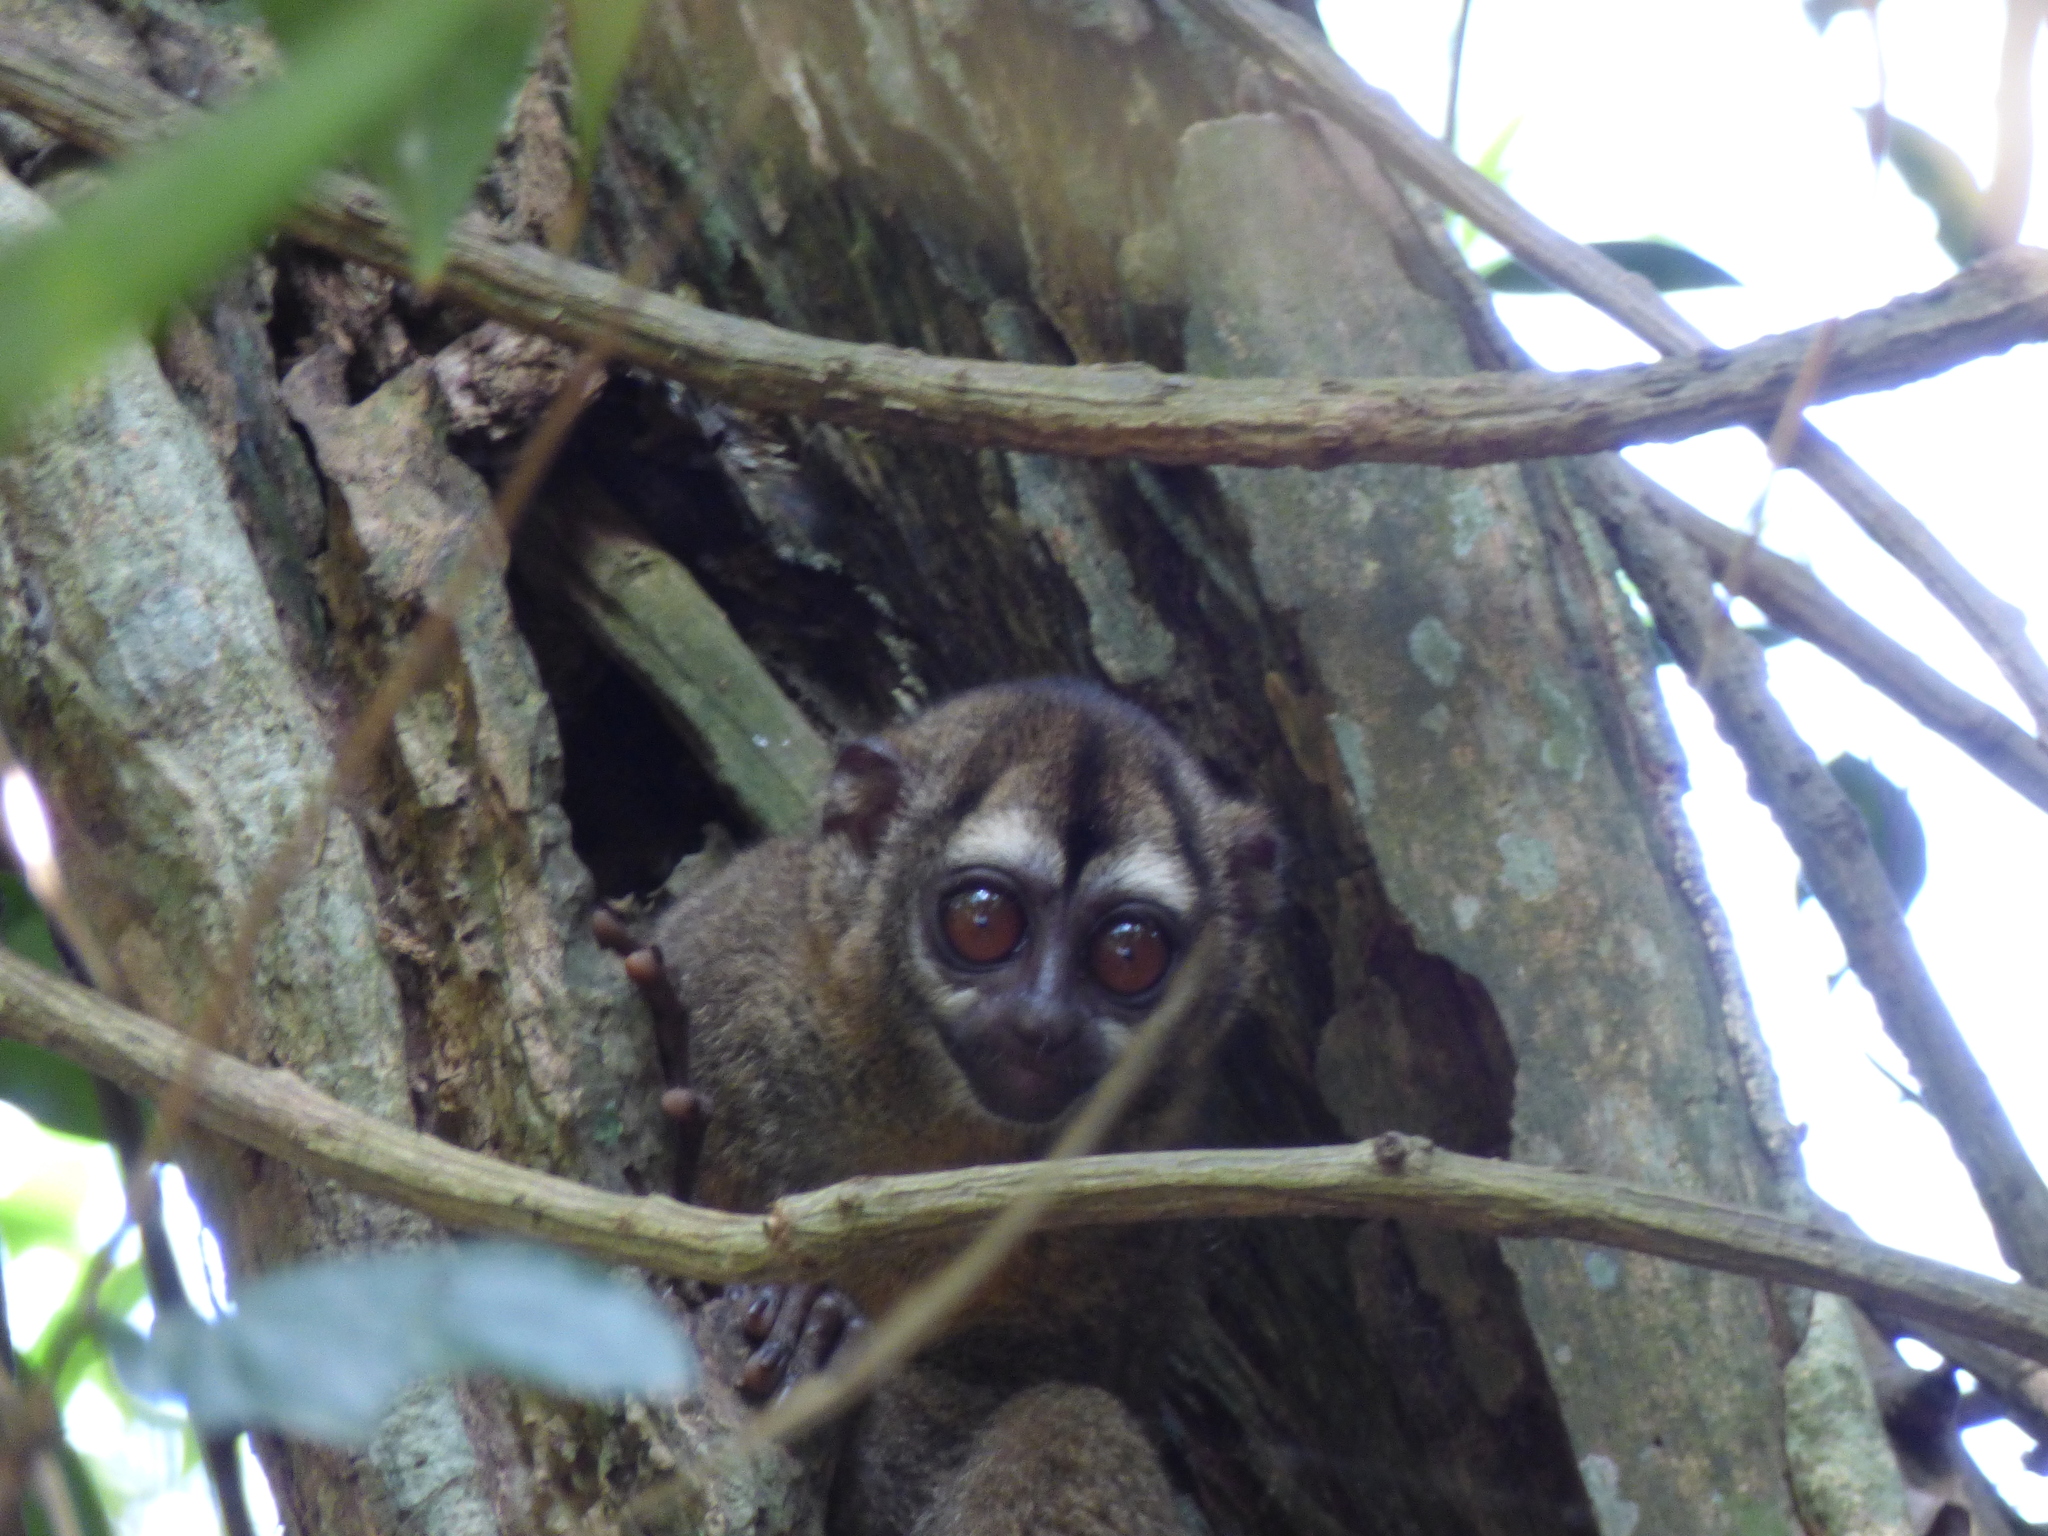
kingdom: Animalia
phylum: Chordata
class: Mammalia
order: Primates
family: Aotidae
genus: Aotus
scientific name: Aotus griseimembra
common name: Douroucouli a bras gris
